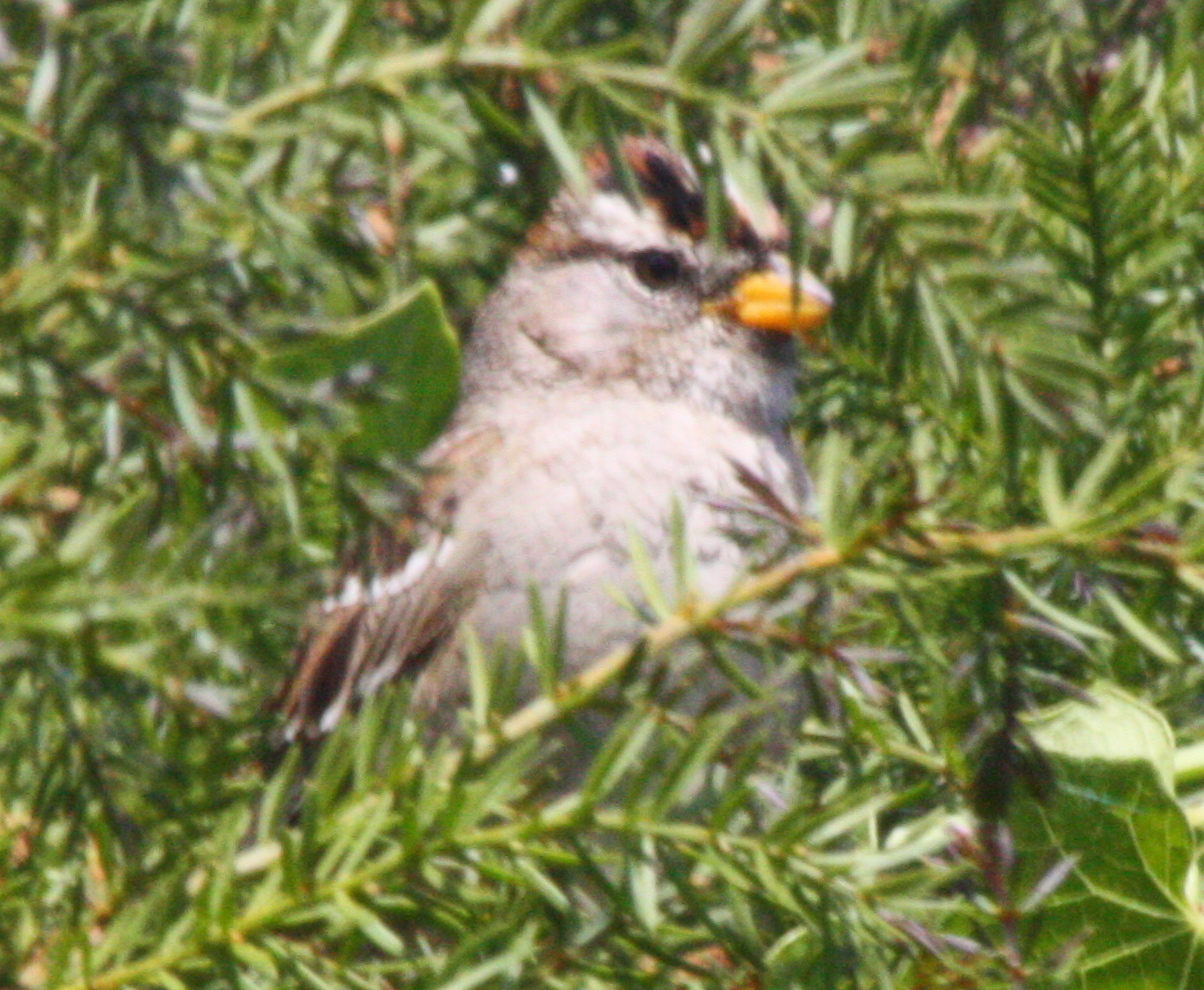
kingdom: Animalia
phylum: Chordata
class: Aves
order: Passeriformes
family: Passerellidae
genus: Zonotrichia
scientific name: Zonotrichia leucophrys
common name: White-crowned sparrow
